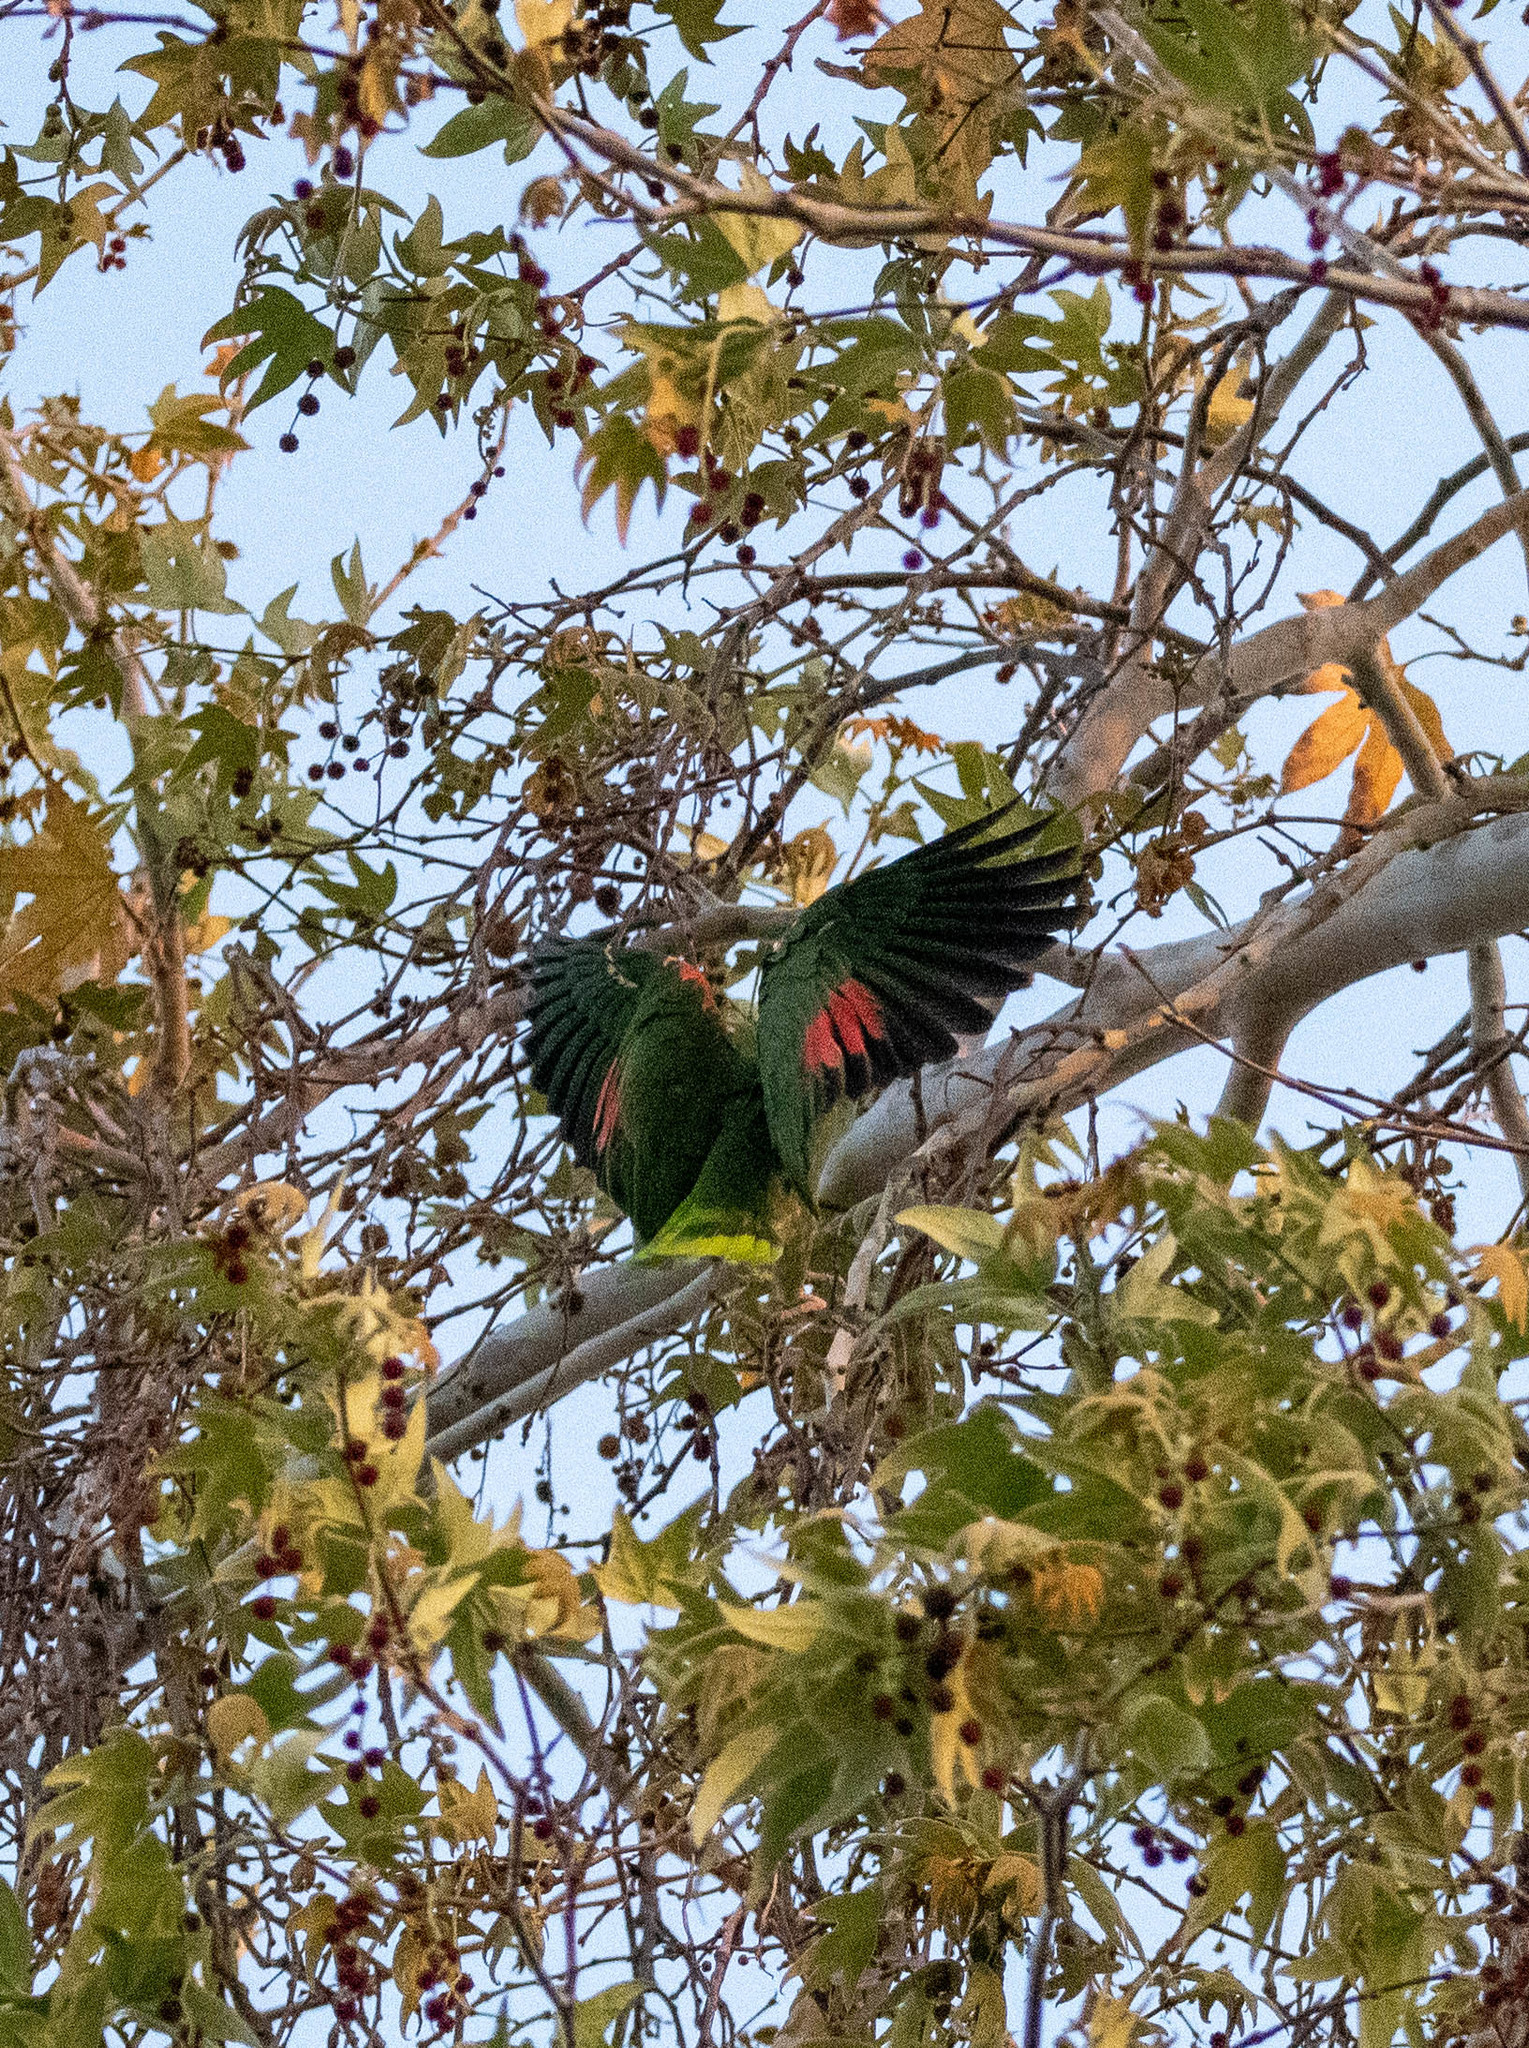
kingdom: Animalia
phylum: Chordata
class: Aves
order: Psittaciformes
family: Psittacidae
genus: Amazona
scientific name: Amazona oratrix
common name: Yellow-headed amazon
